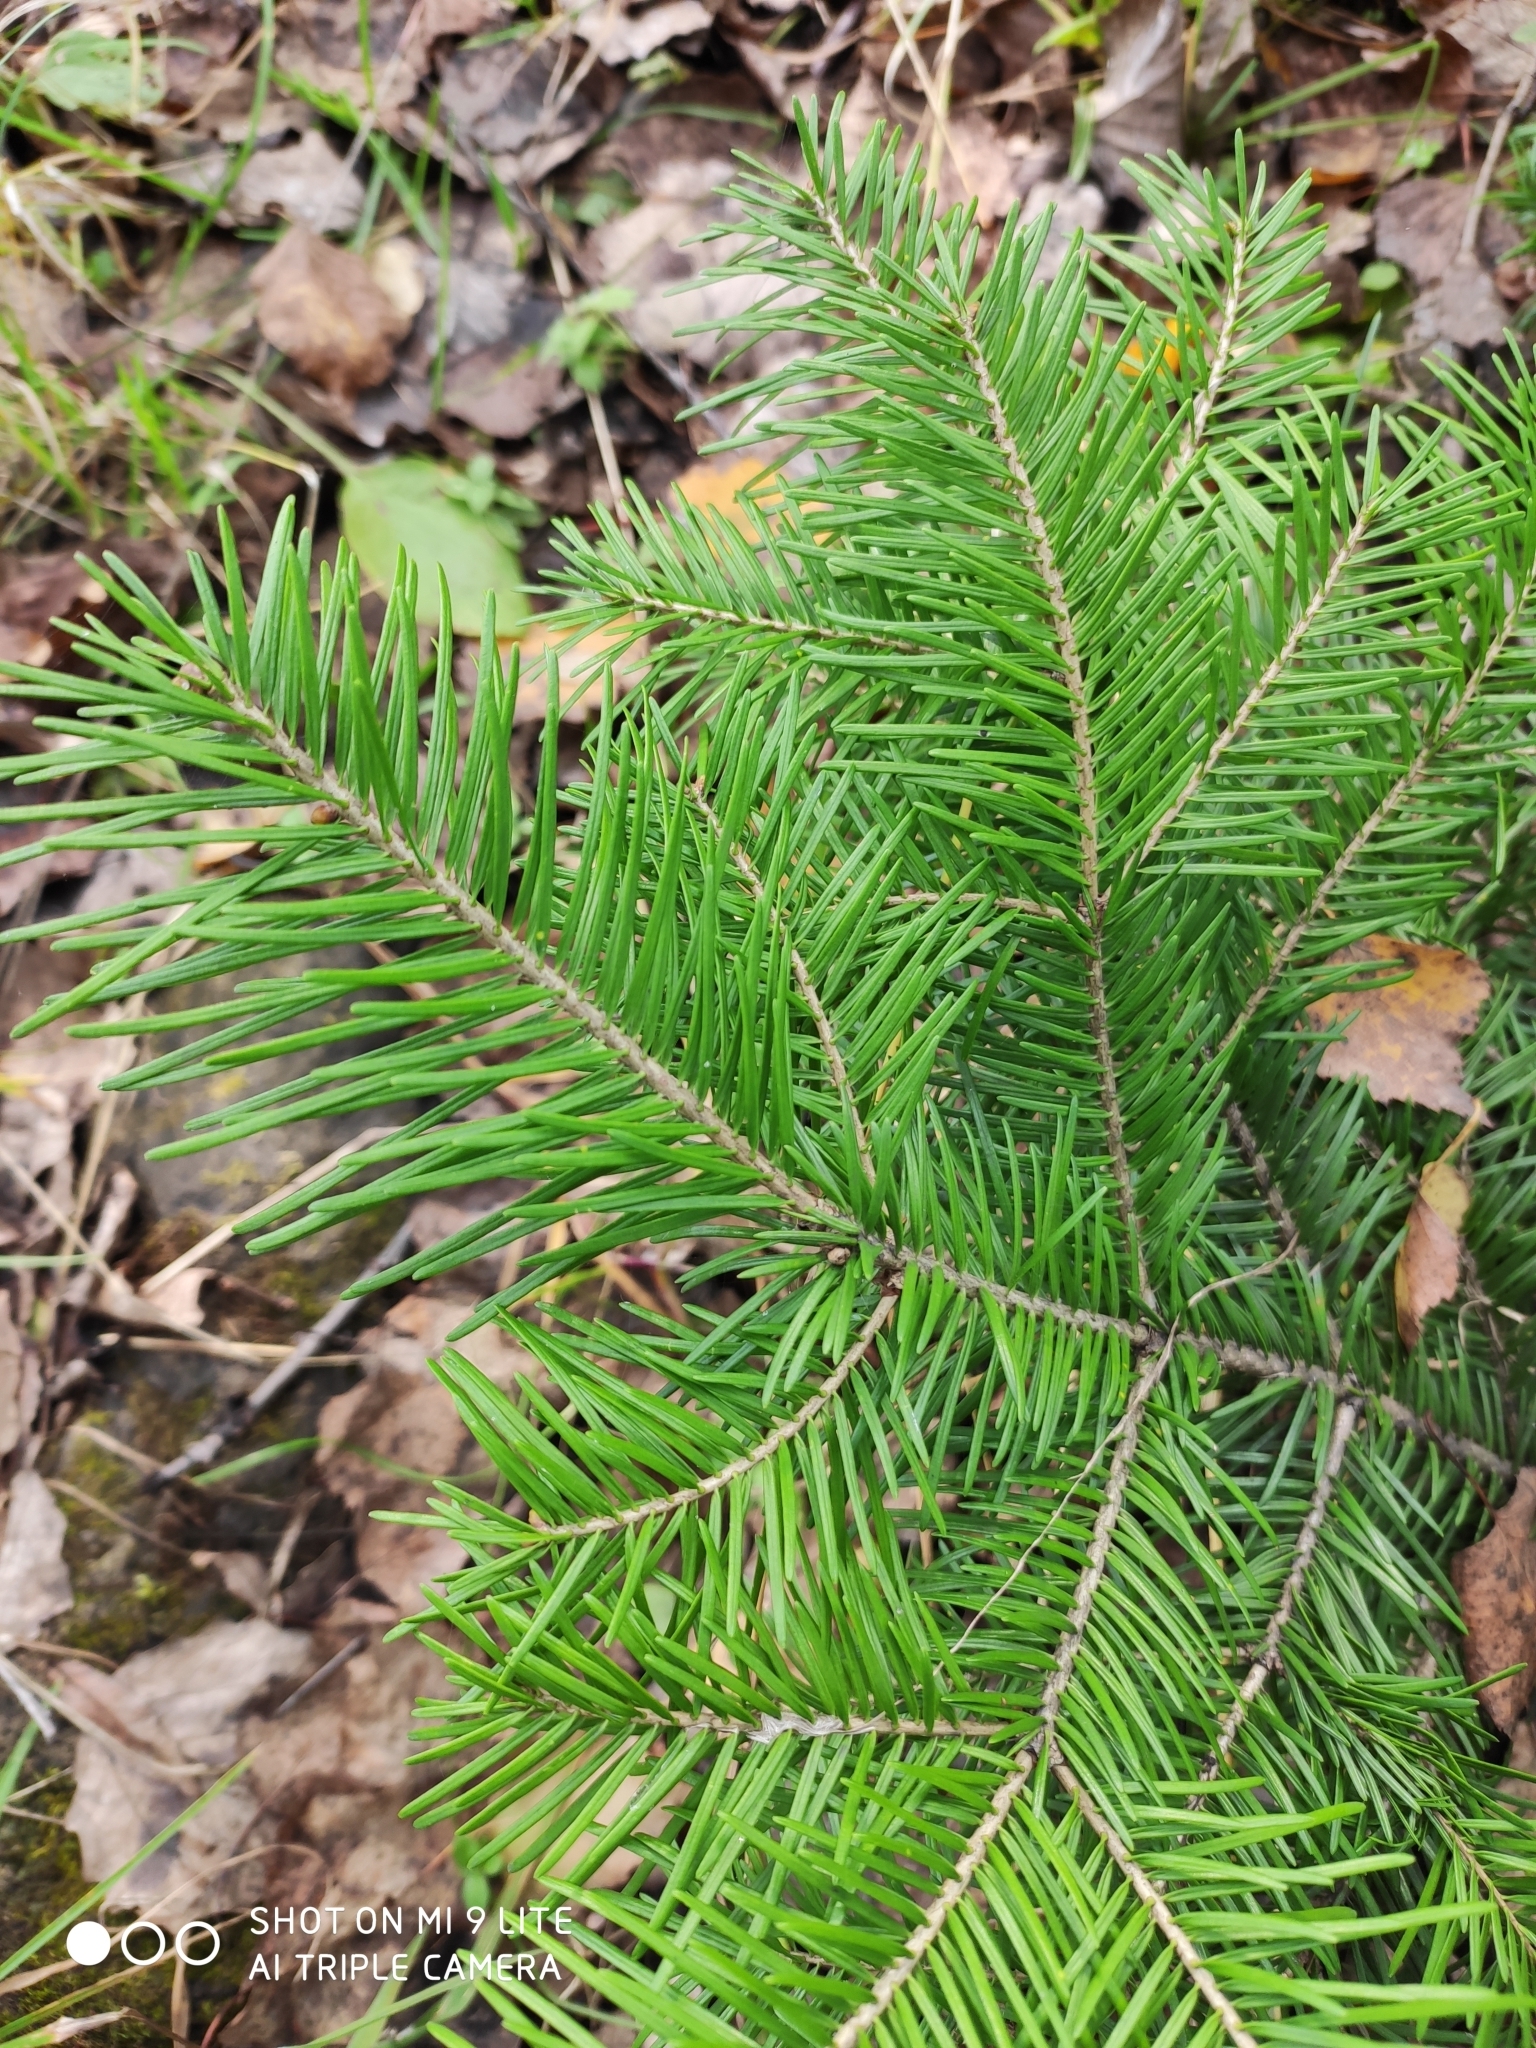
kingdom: Plantae
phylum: Tracheophyta
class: Pinopsida
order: Pinales
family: Pinaceae
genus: Abies
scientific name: Abies sibirica
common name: Siberian fir
